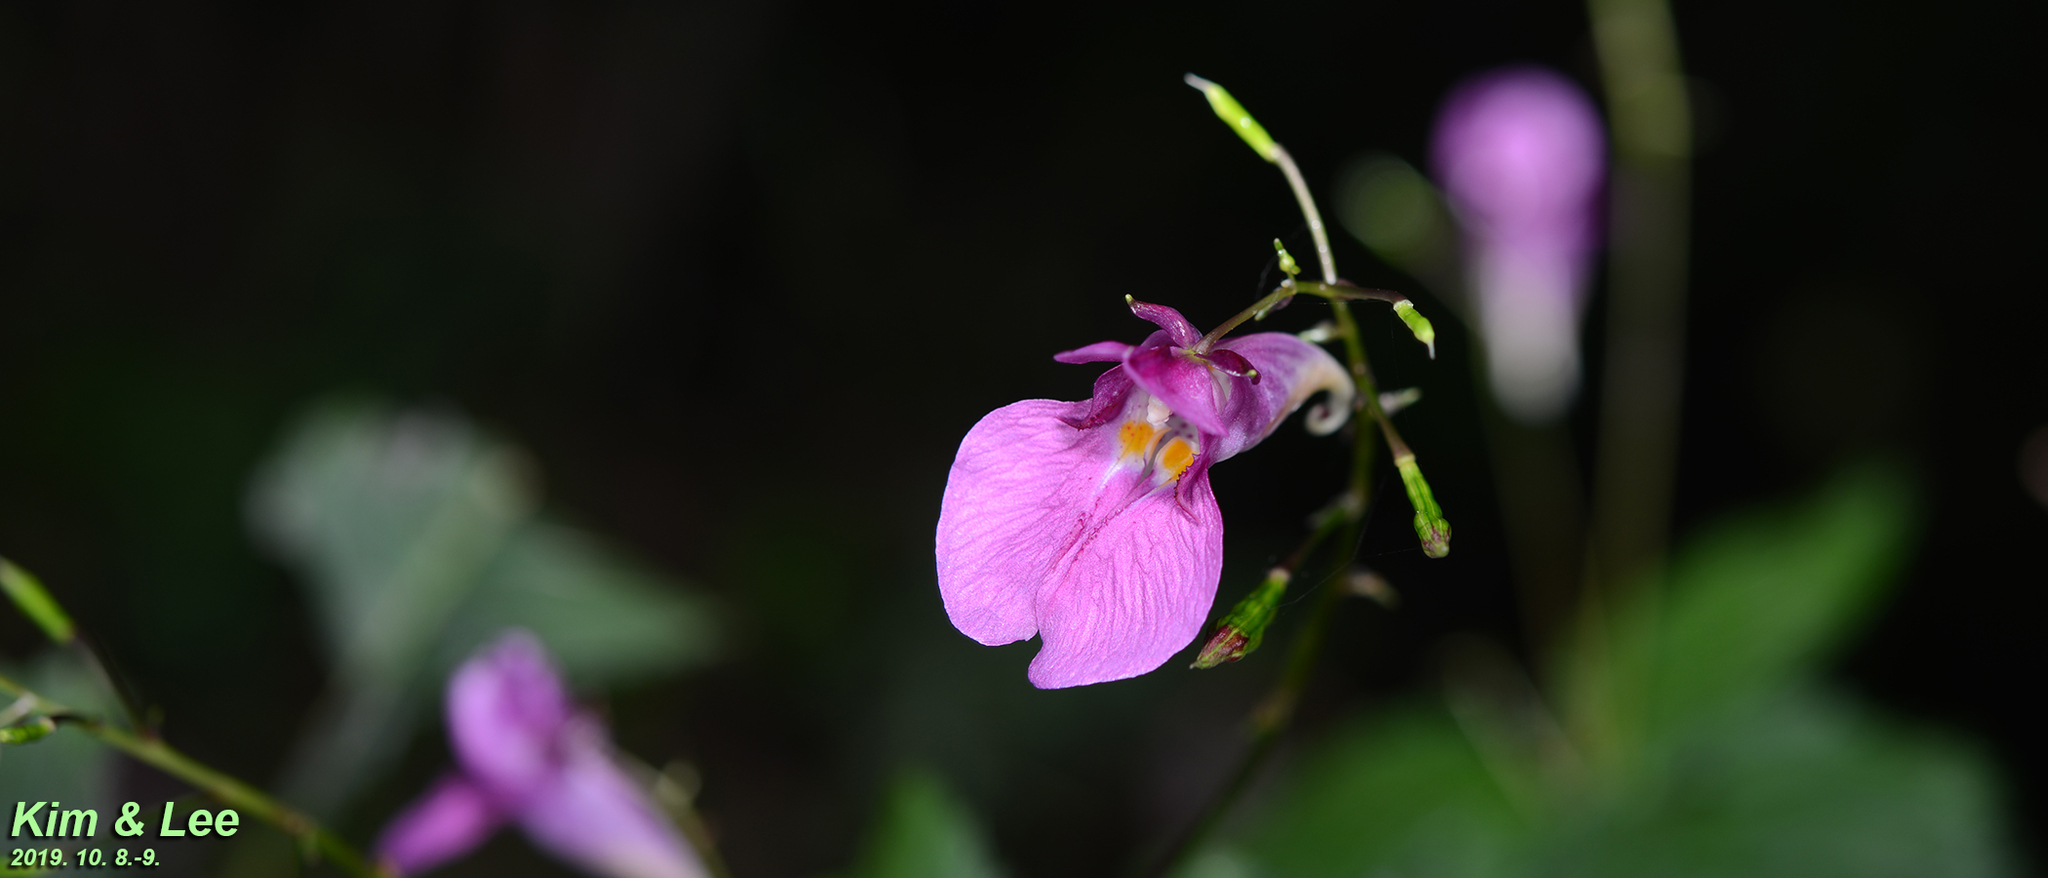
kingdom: Plantae
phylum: Tracheophyta
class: Magnoliopsida
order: Ericales
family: Balsaminaceae
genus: Impatiens
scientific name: Impatiens textorii
